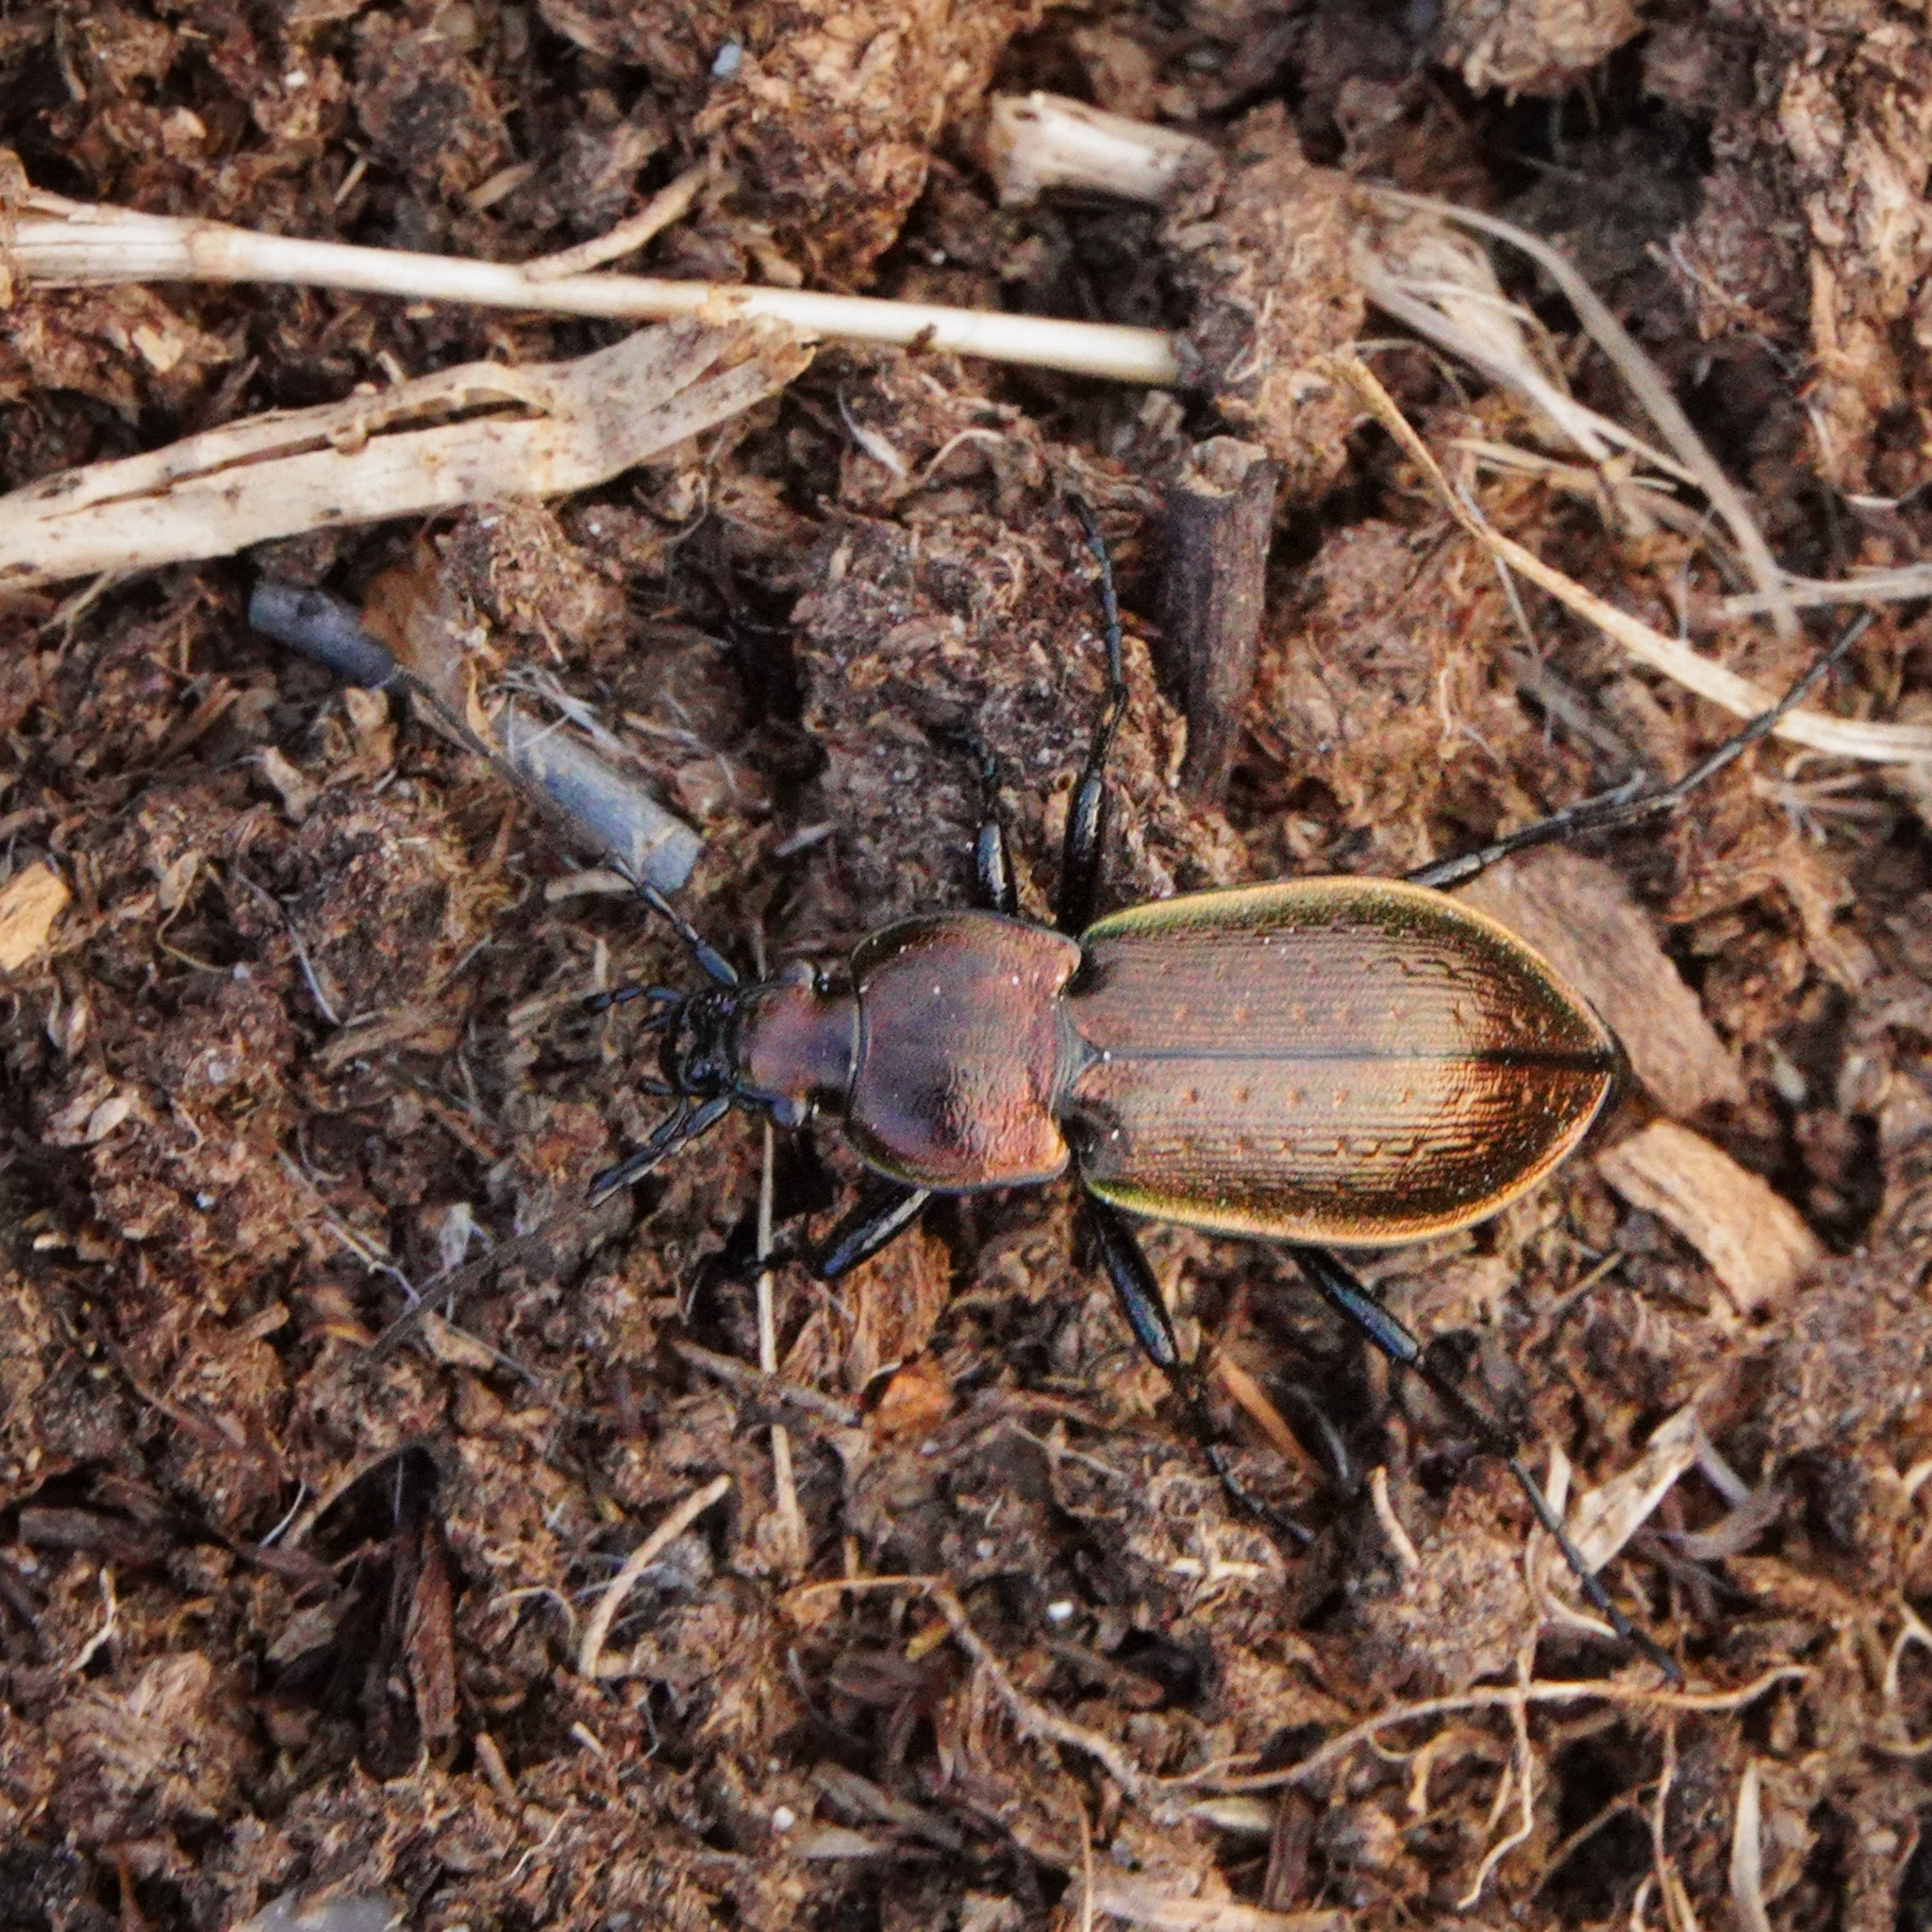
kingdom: Animalia
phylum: Arthropoda
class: Insecta
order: Coleoptera
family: Carabidae
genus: Carabus
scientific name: Carabus arvensis
